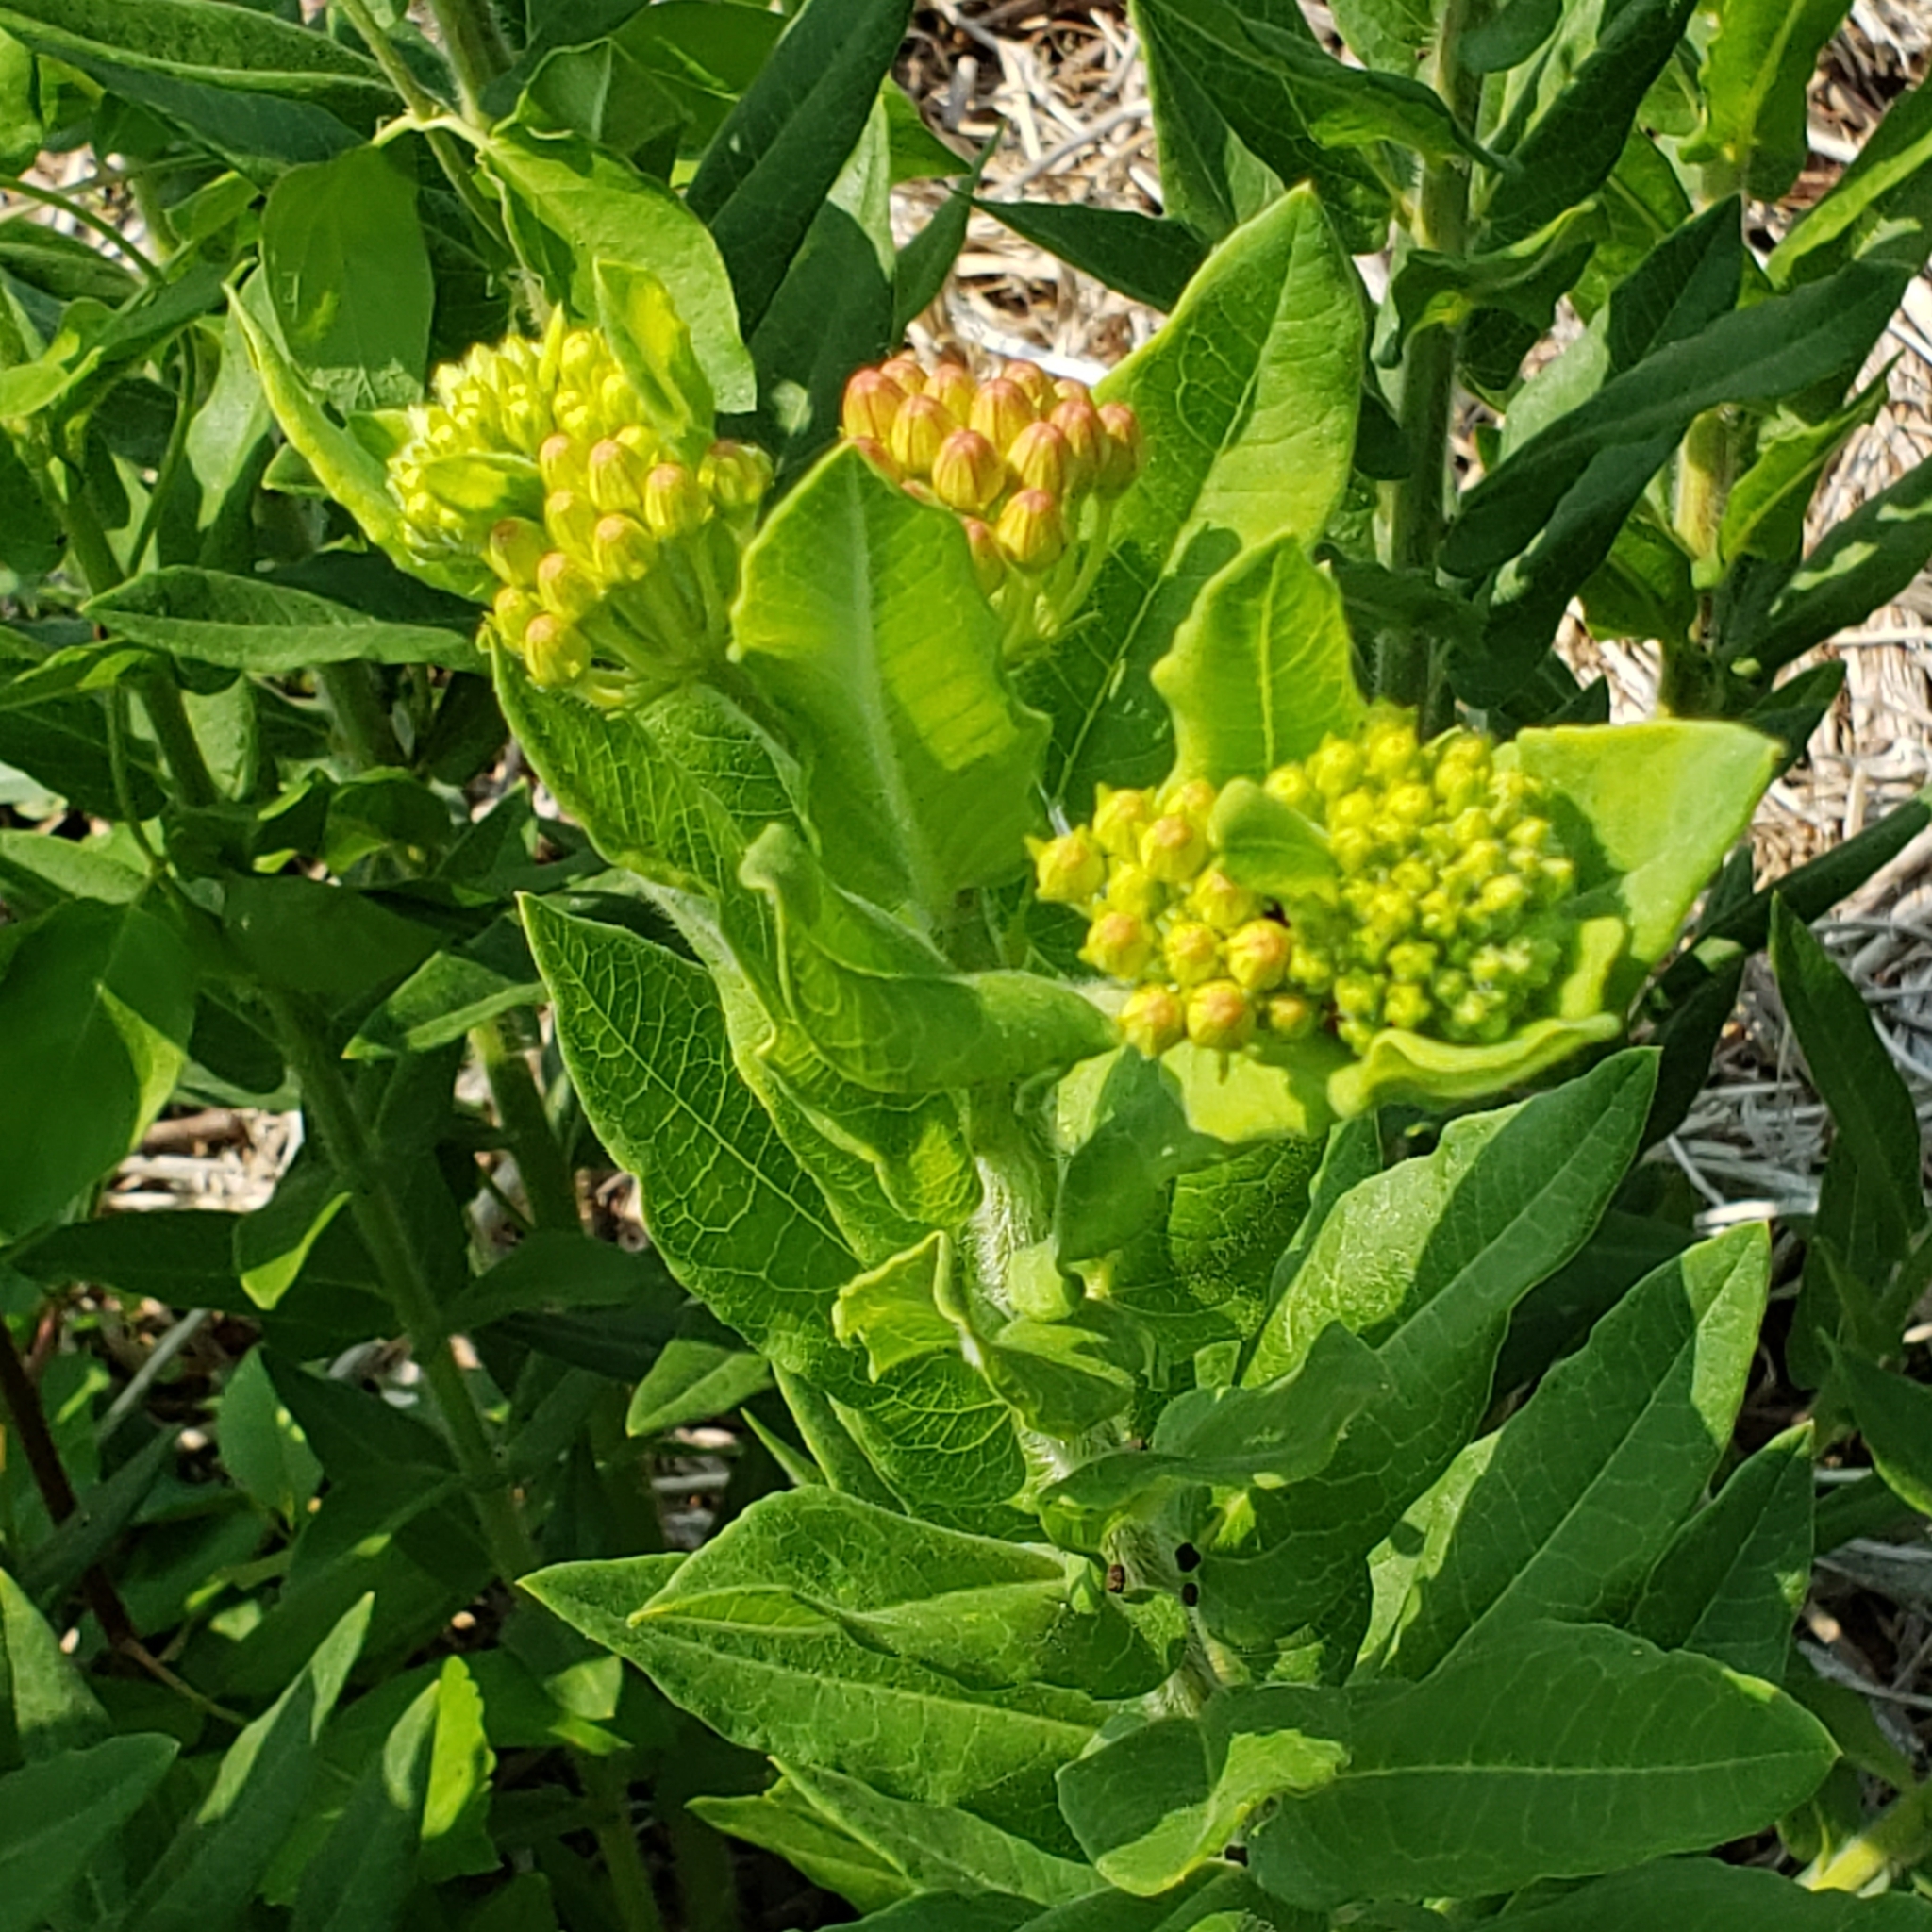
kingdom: Plantae
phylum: Tracheophyta
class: Magnoliopsida
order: Gentianales
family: Apocynaceae
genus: Asclepias
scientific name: Asclepias tuberosa
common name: Butterfly milkweed
